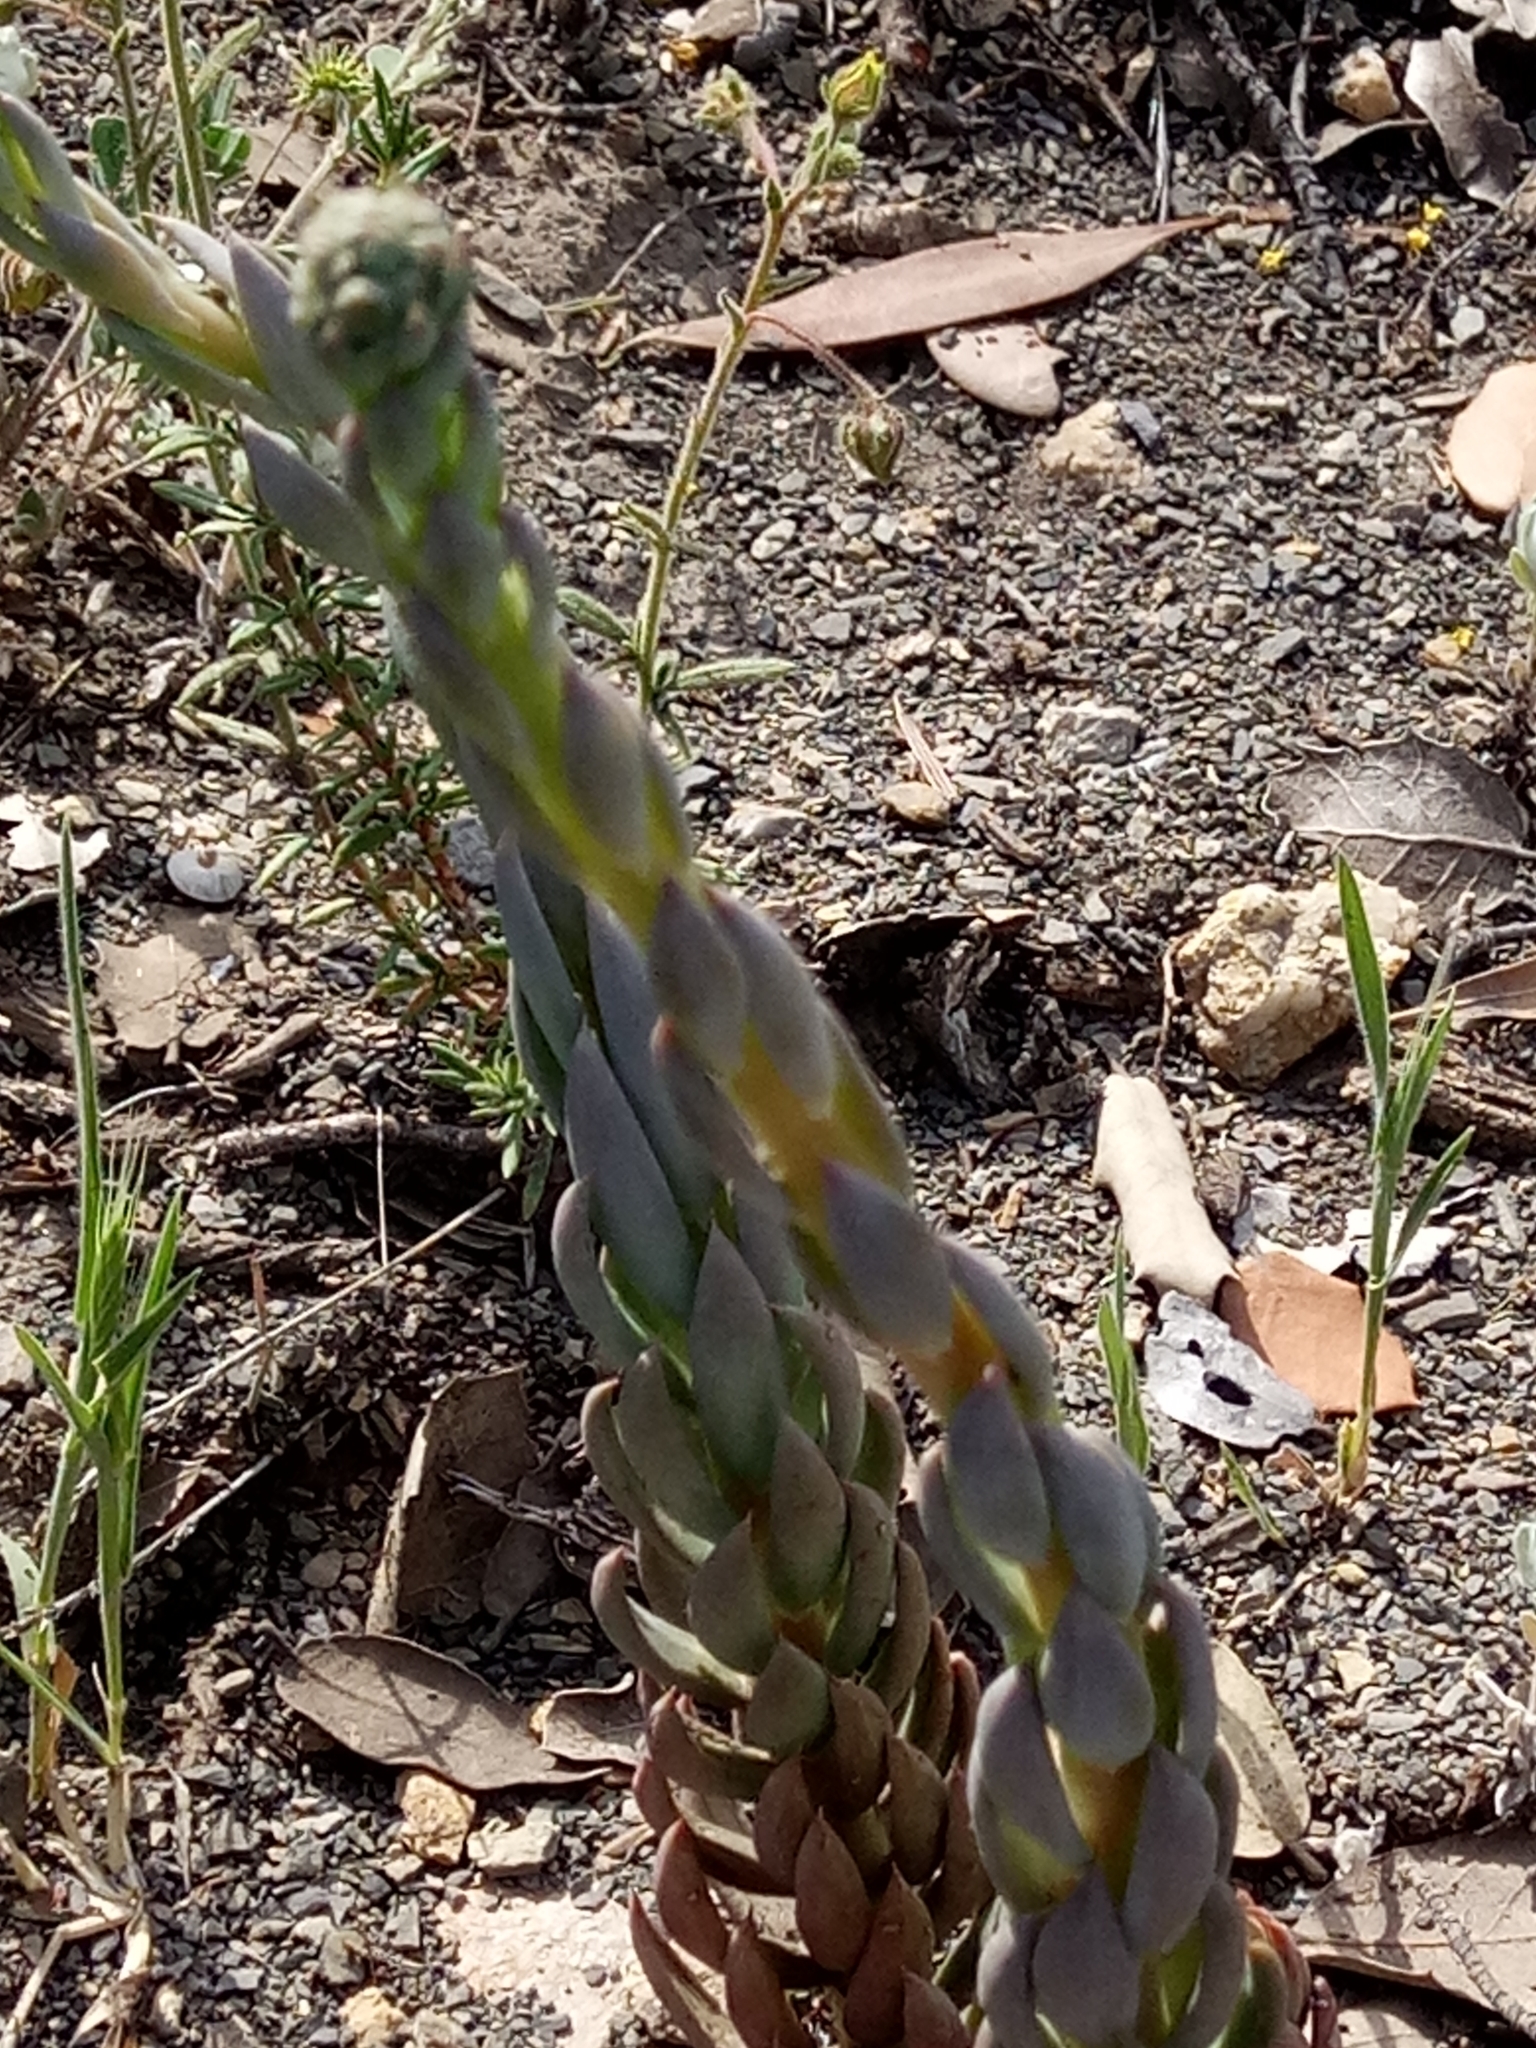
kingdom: Plantae
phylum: Tracheophyta
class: Magnoliopsida
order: Saxifragales
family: Crassulaceae
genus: Petrosedum
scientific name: Petrosedum sediforme
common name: Pale stonecrop
